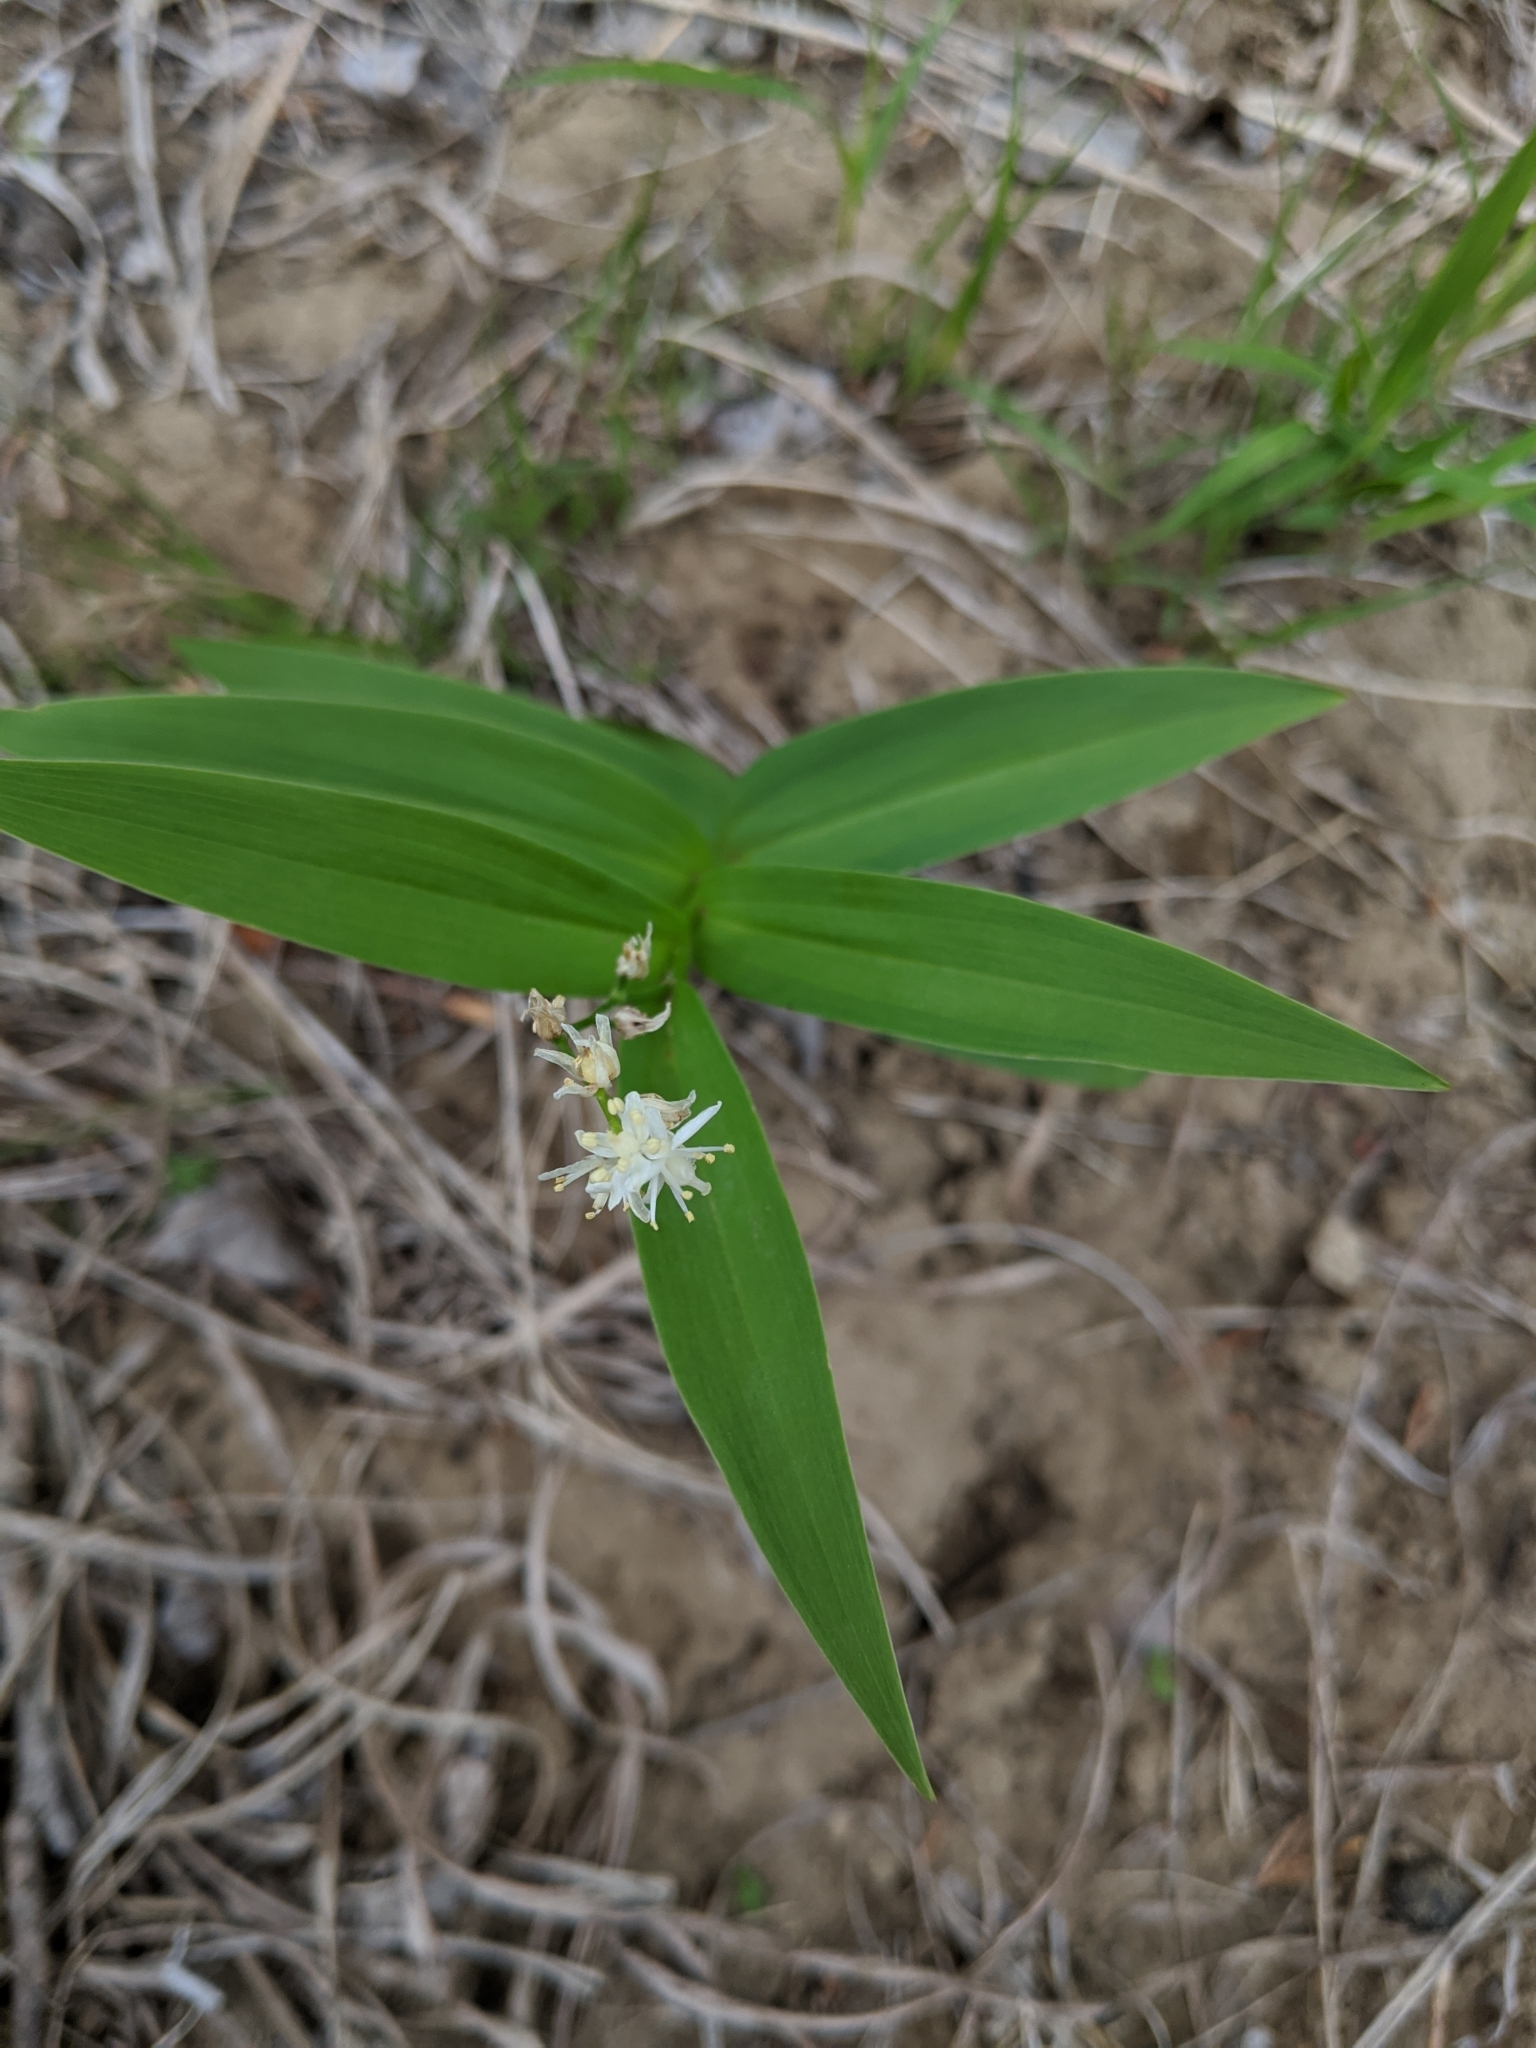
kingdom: Plantae
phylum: Tracheophyta
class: Liliopsida
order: Asparagales
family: Asparagaceae
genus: Maianthemum
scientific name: Maianthemum stellatum
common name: Little false solomon's seal
